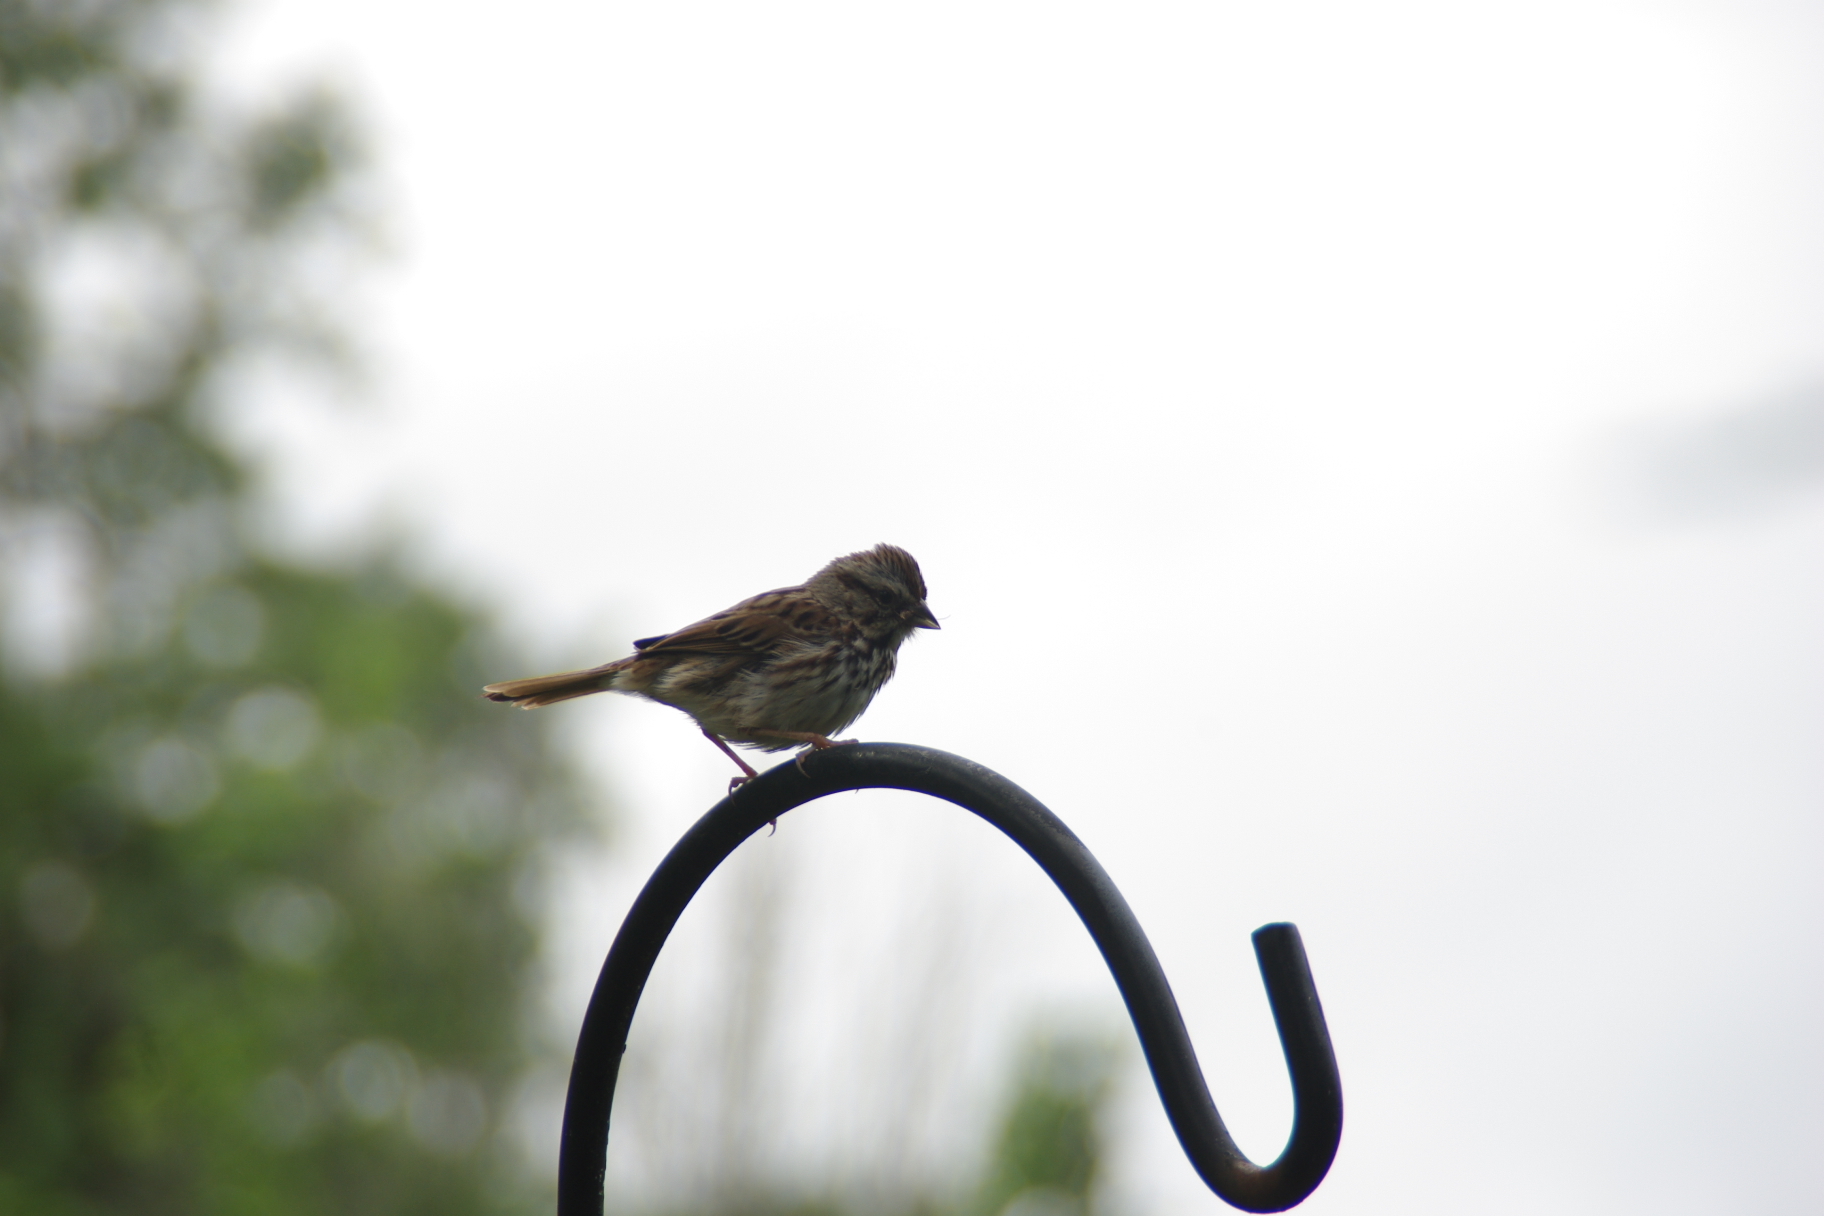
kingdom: Animalia
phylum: Chordata
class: Aves
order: Passeriformes
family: Passerellidae
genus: Melospiza
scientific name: Melospiza melodia
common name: Song sparrow
